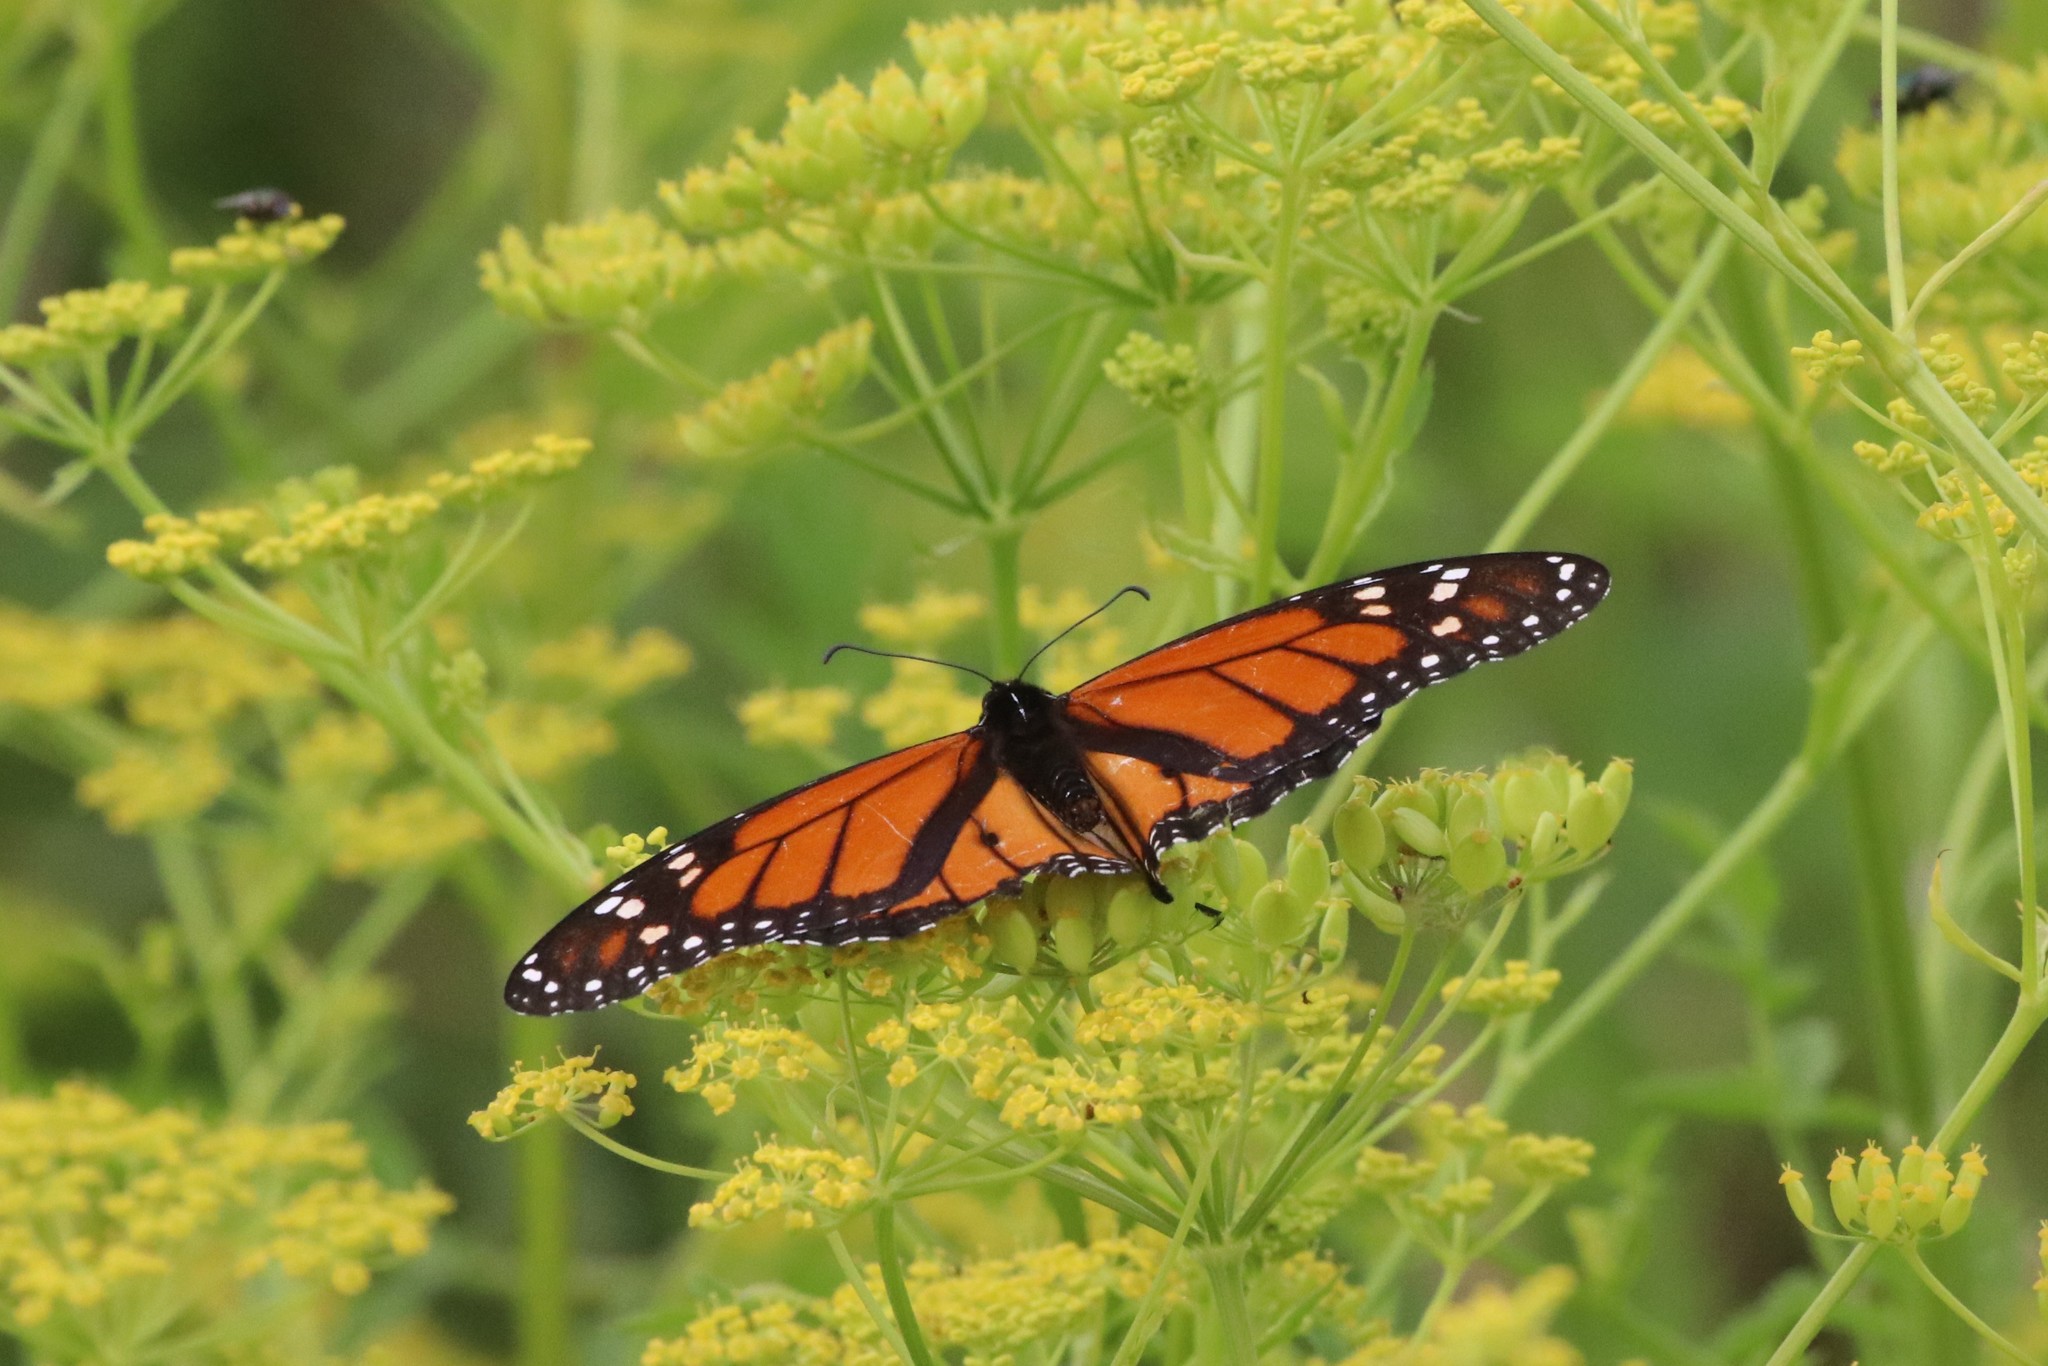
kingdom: Animalia
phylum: Arthropoda
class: Insecta
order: Lepidoptera
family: Nymphalidae
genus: Danaus
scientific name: Danaus plexippus
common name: Monarch
